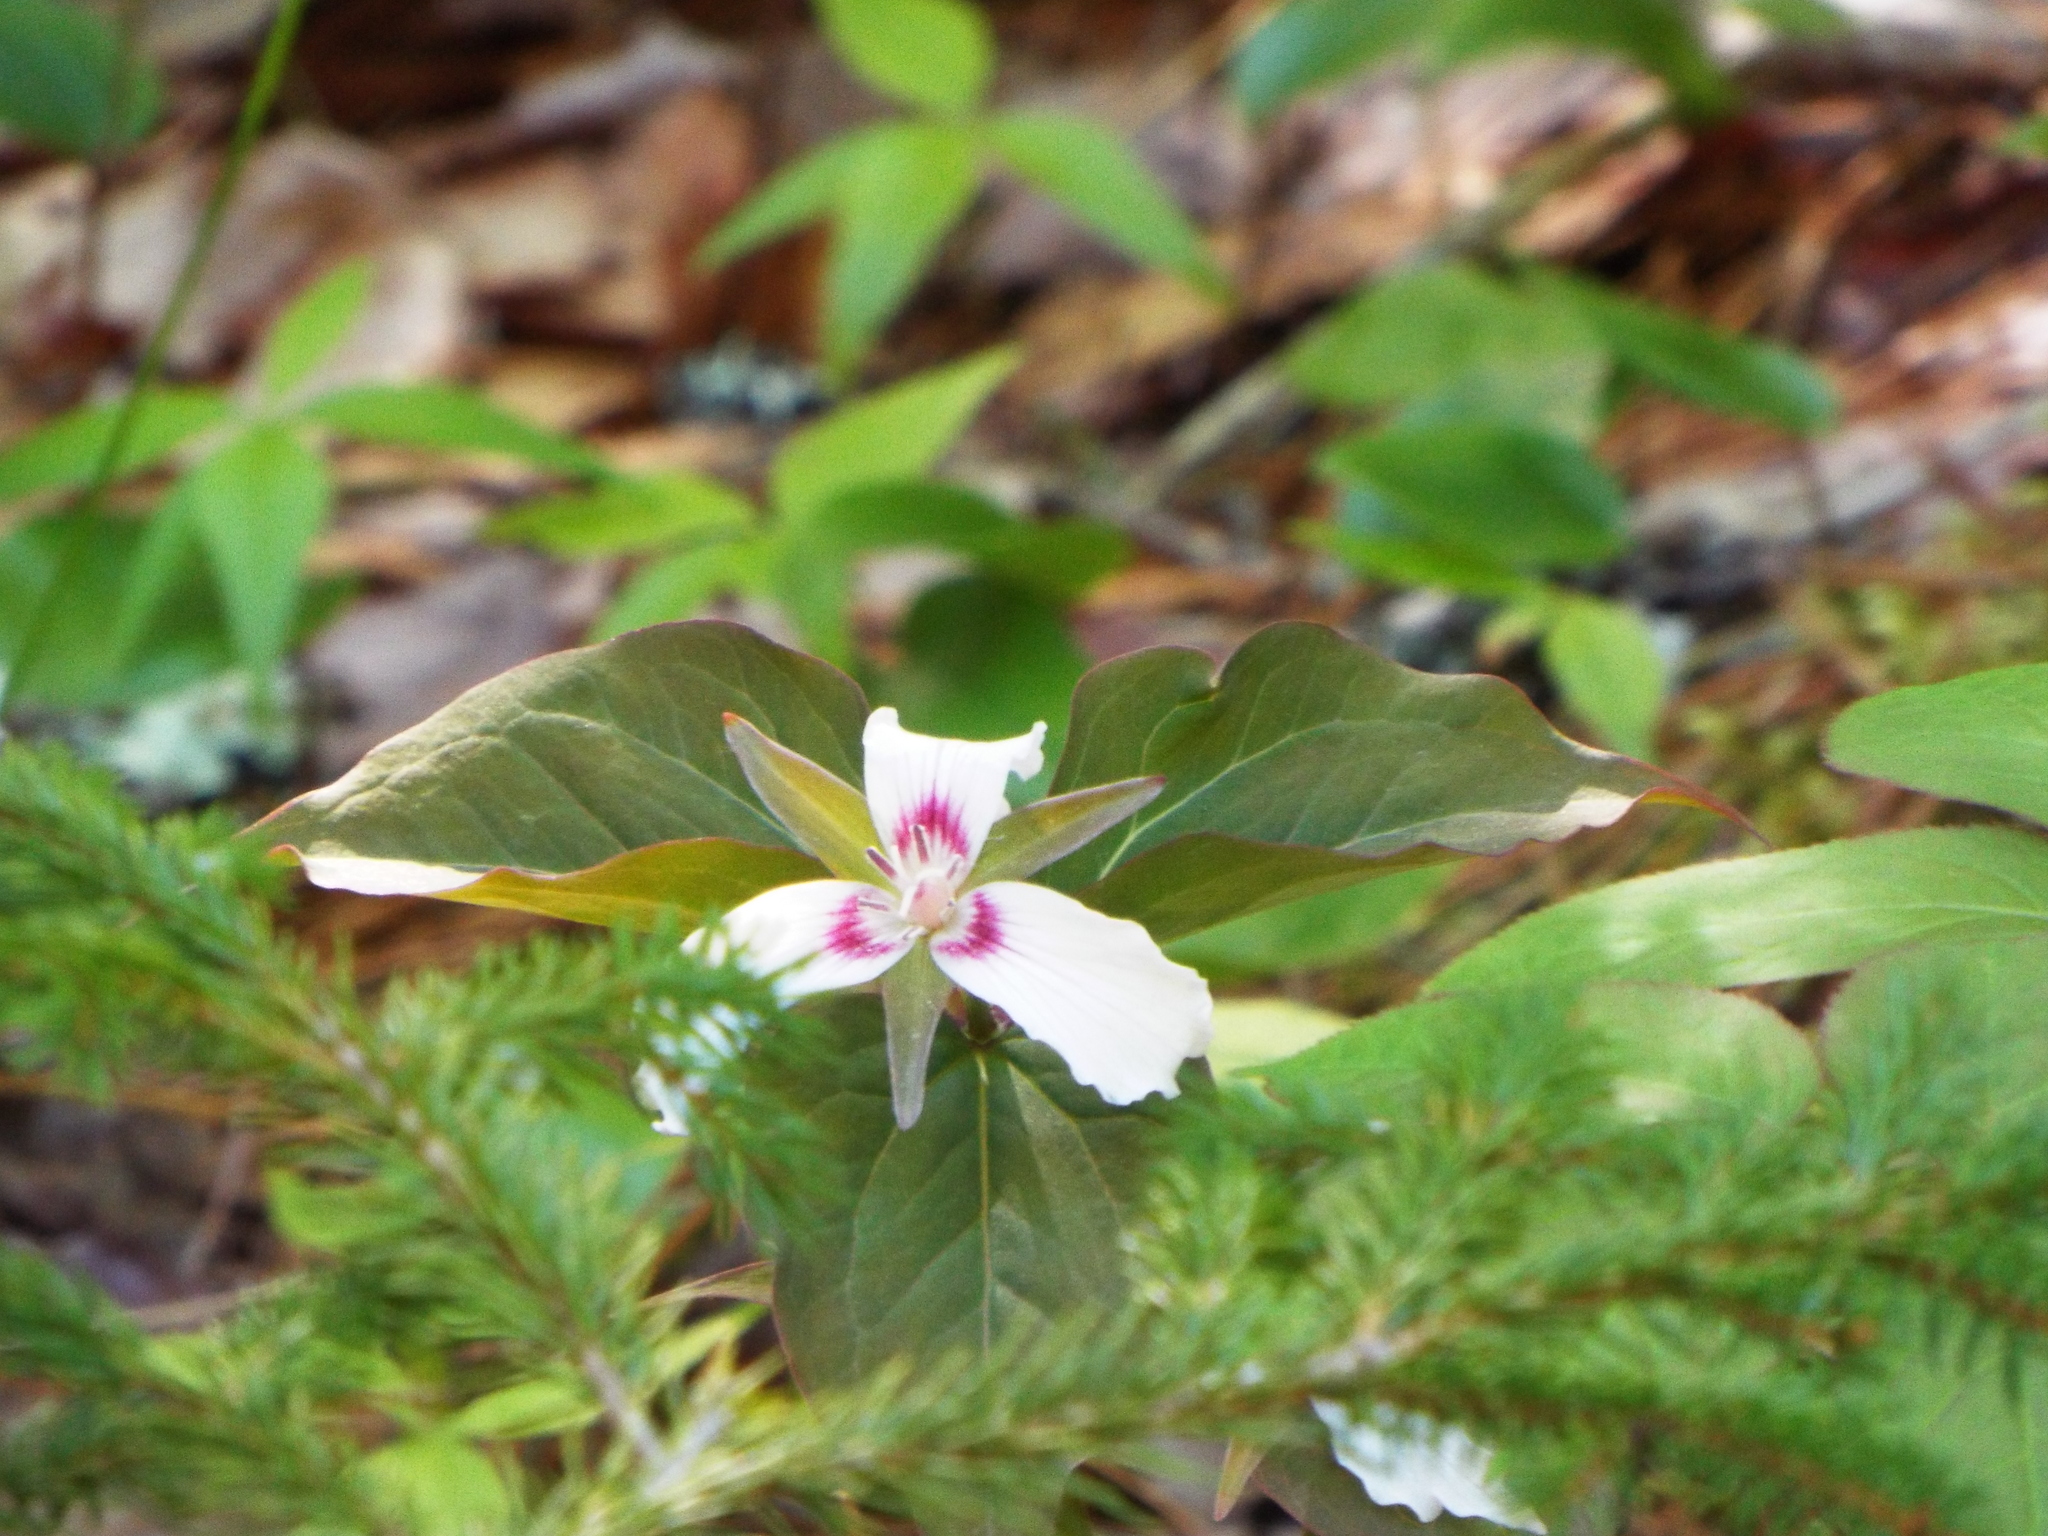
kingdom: Plantae
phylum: Tracheophyta
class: Liliopsida
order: Liliales
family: Melanthiaceae
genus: Trillium
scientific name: Trillium undulatum
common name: Paint trillium
